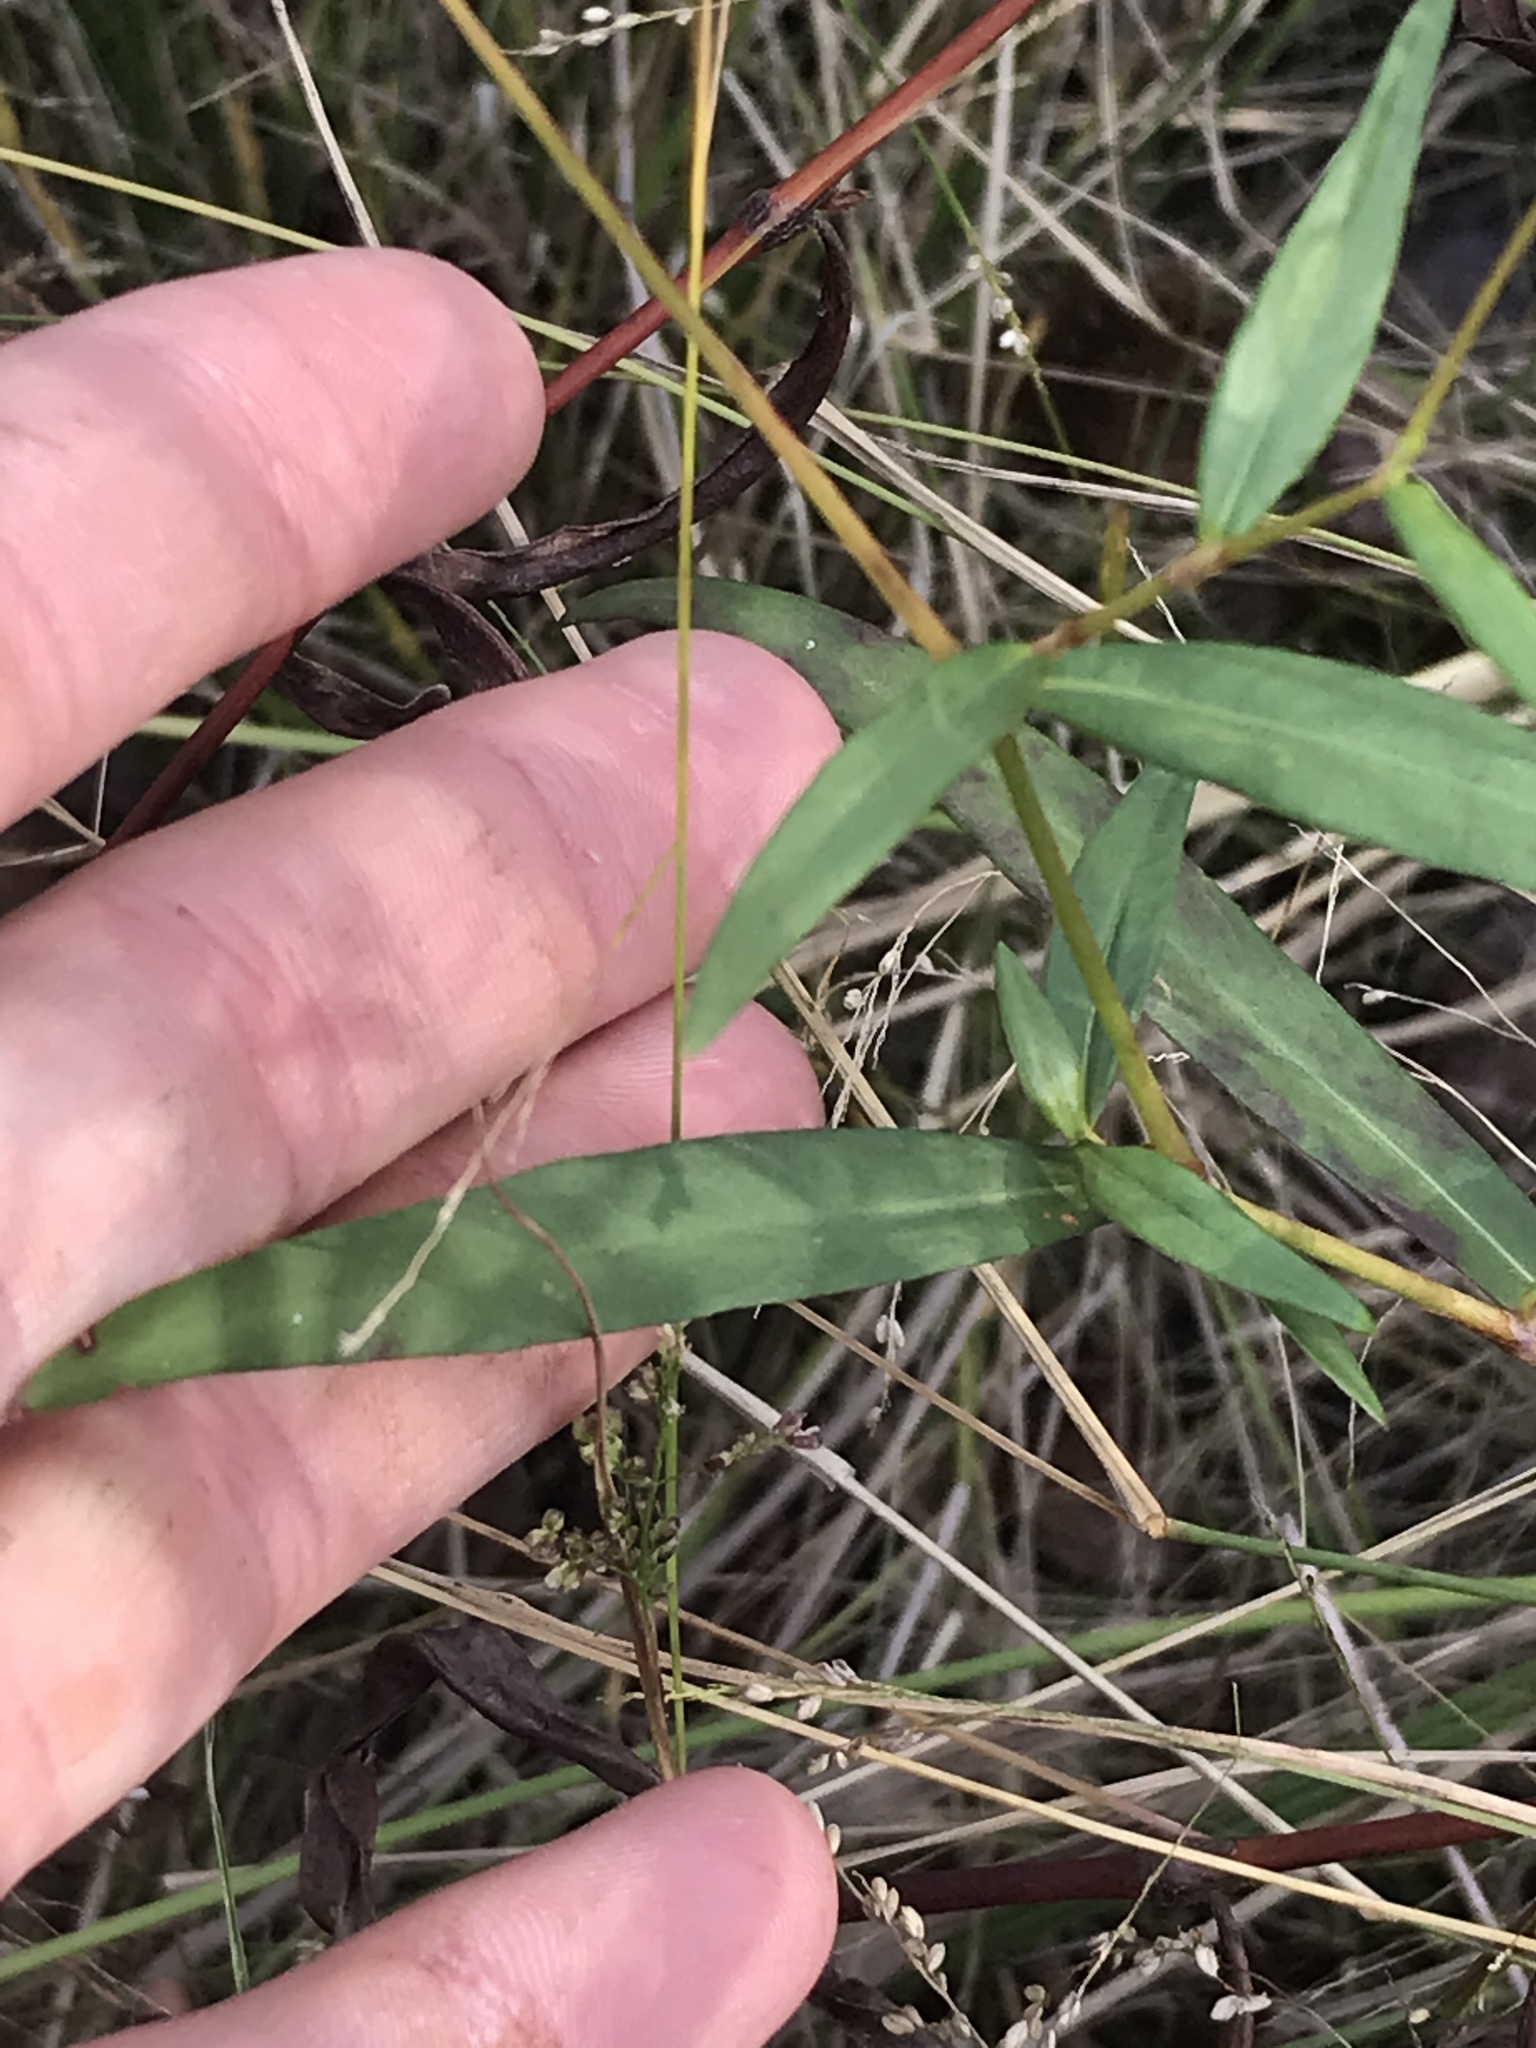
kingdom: Plantae
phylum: Tracheophyta
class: Magnoliopsida
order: Caryophyllales
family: Polygonaceae
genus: Persicaria
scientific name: Persicaria hydropiperoides
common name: Swamp smartweed
